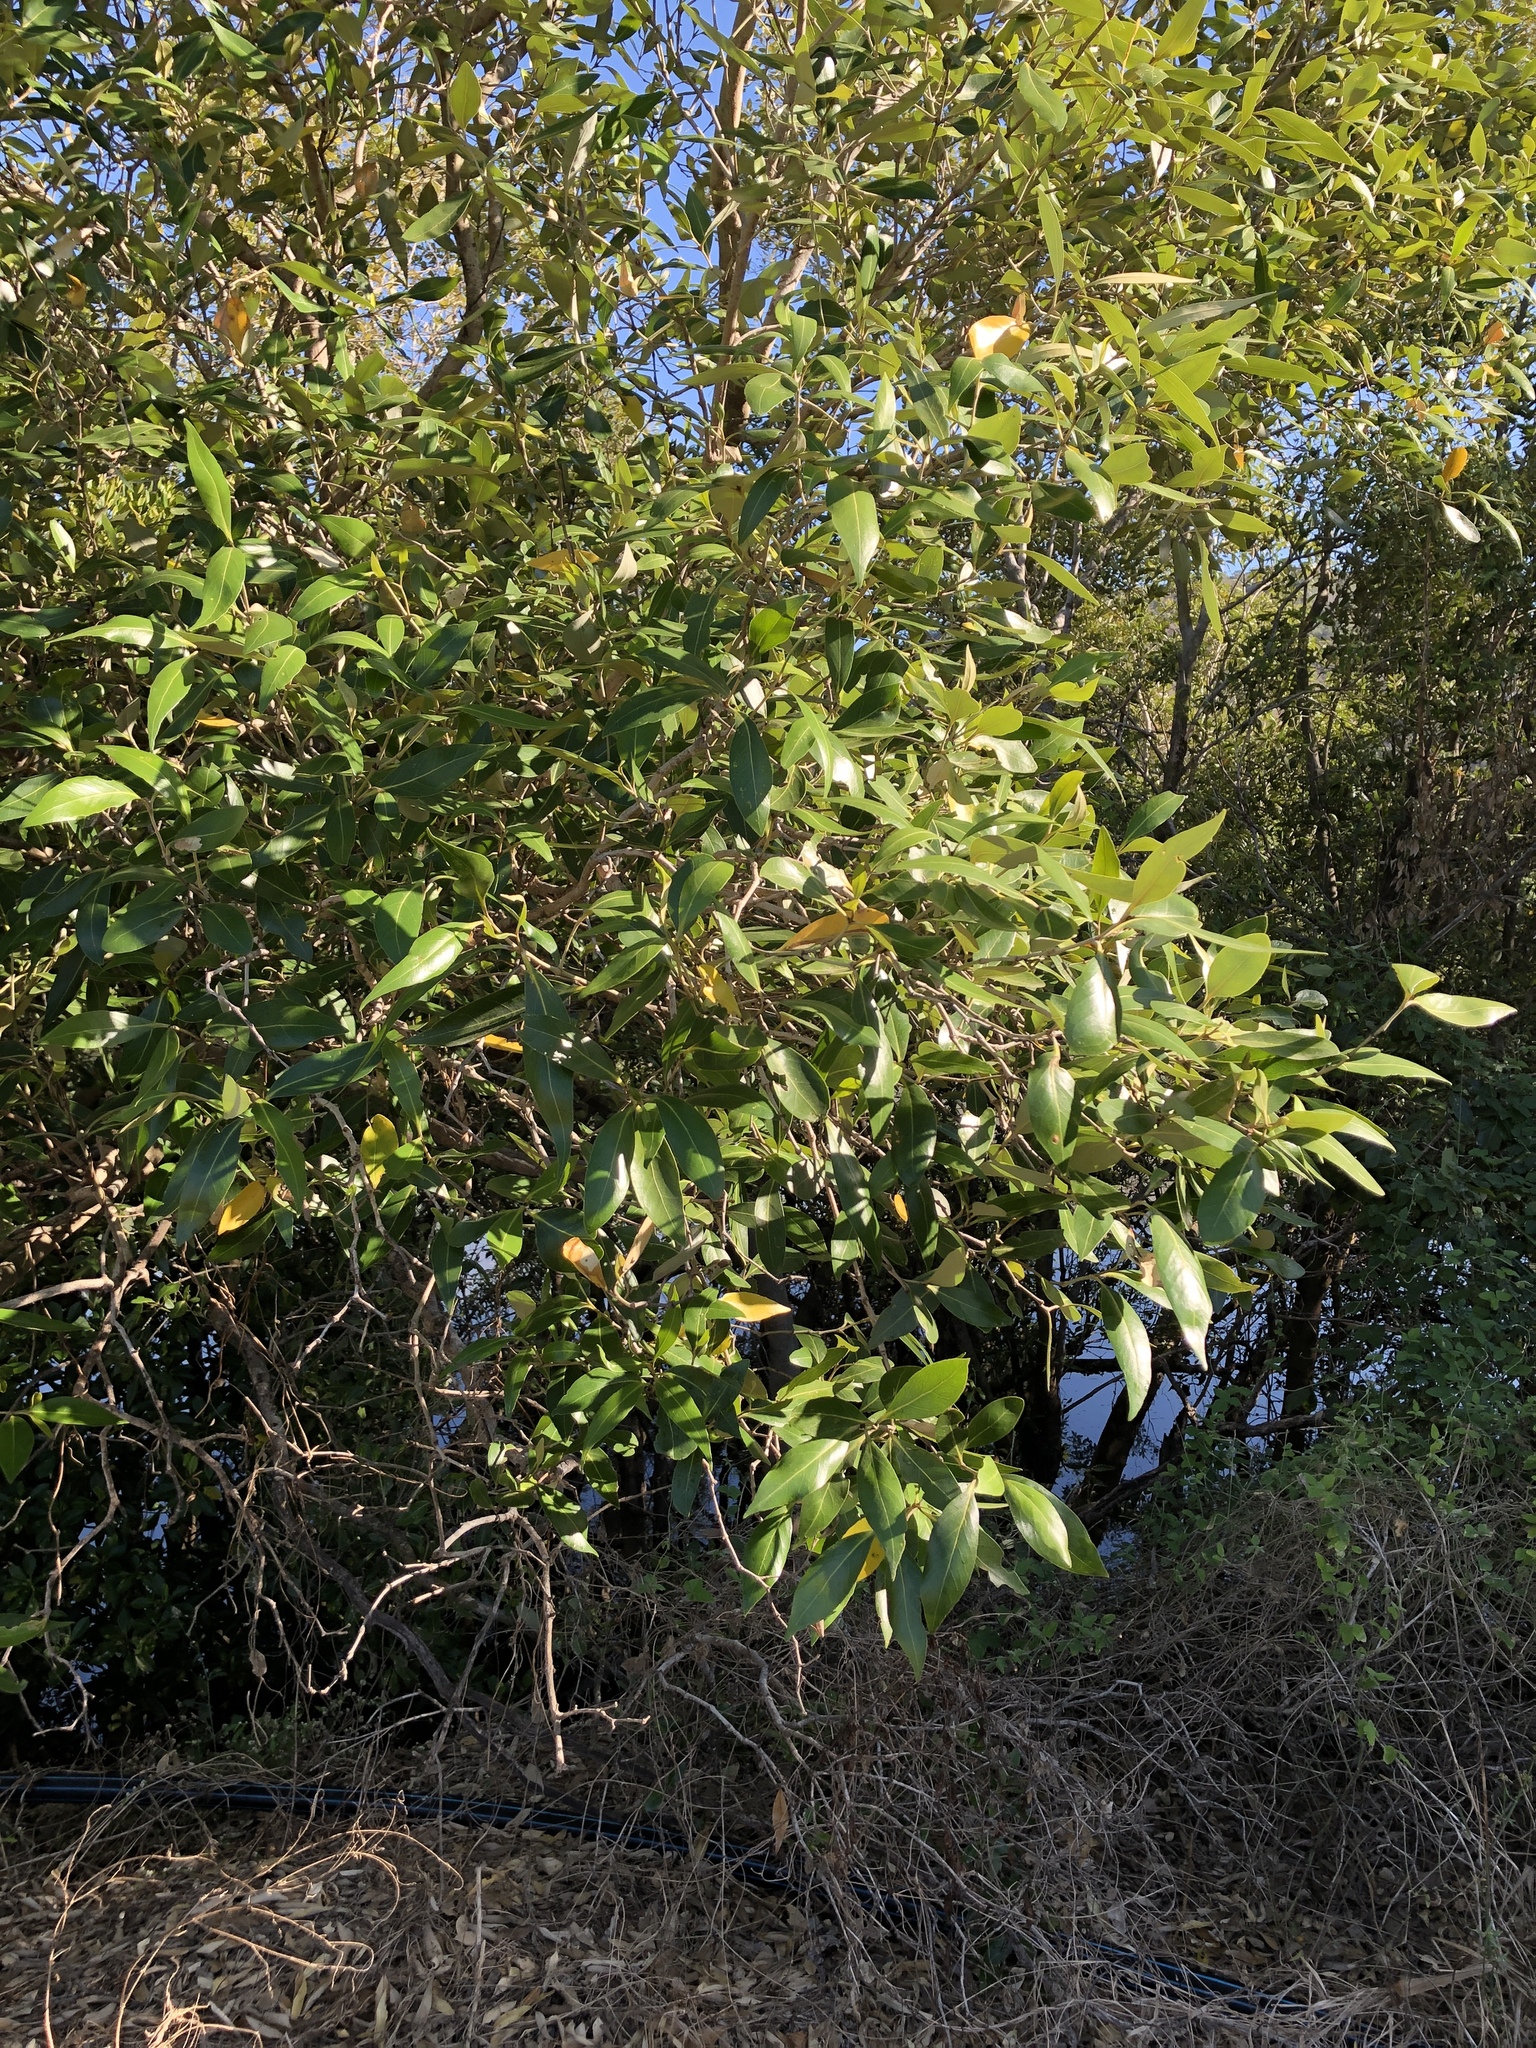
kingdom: Plantae
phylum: Tracheophyta
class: Magnoliopsida
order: Lamiales
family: Acanthaceae
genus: Avicennia
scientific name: Avicennia marina
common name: Gray mangrove
